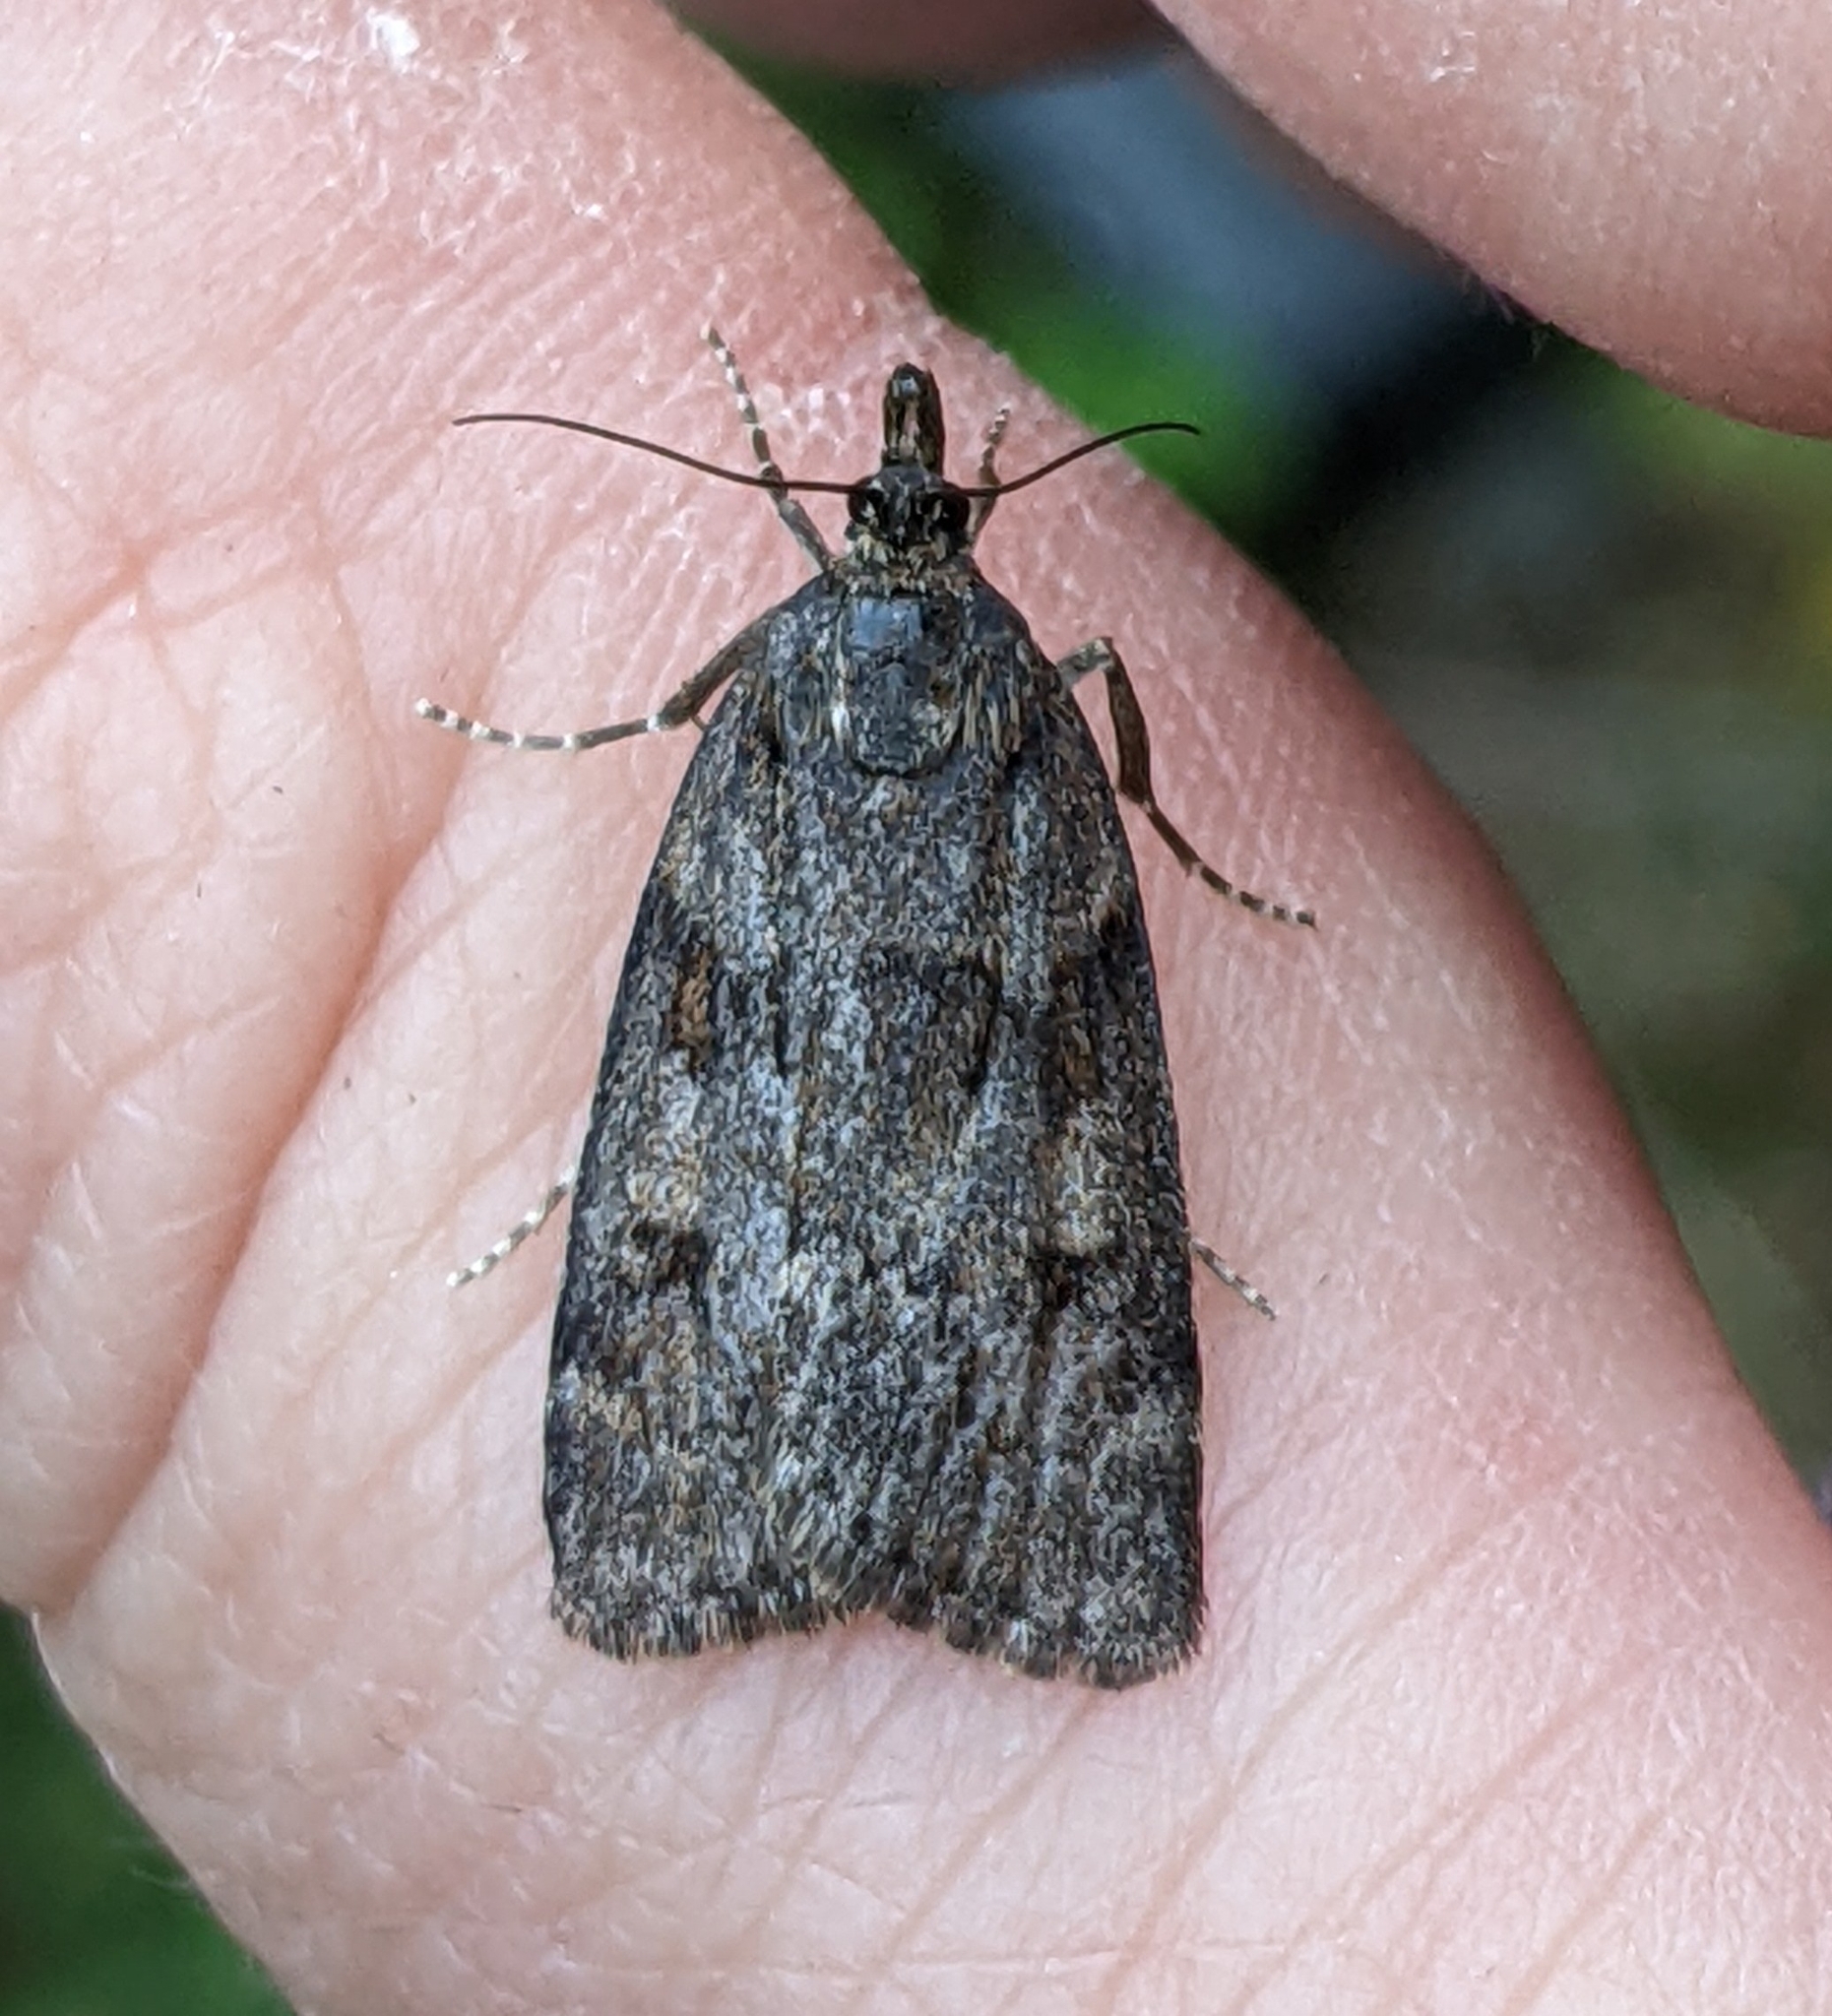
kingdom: Animalia
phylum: Arthropoda
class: Insecta
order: Lepidoptera
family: Crambidae
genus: Gesneria
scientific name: Gesneria centuriella
